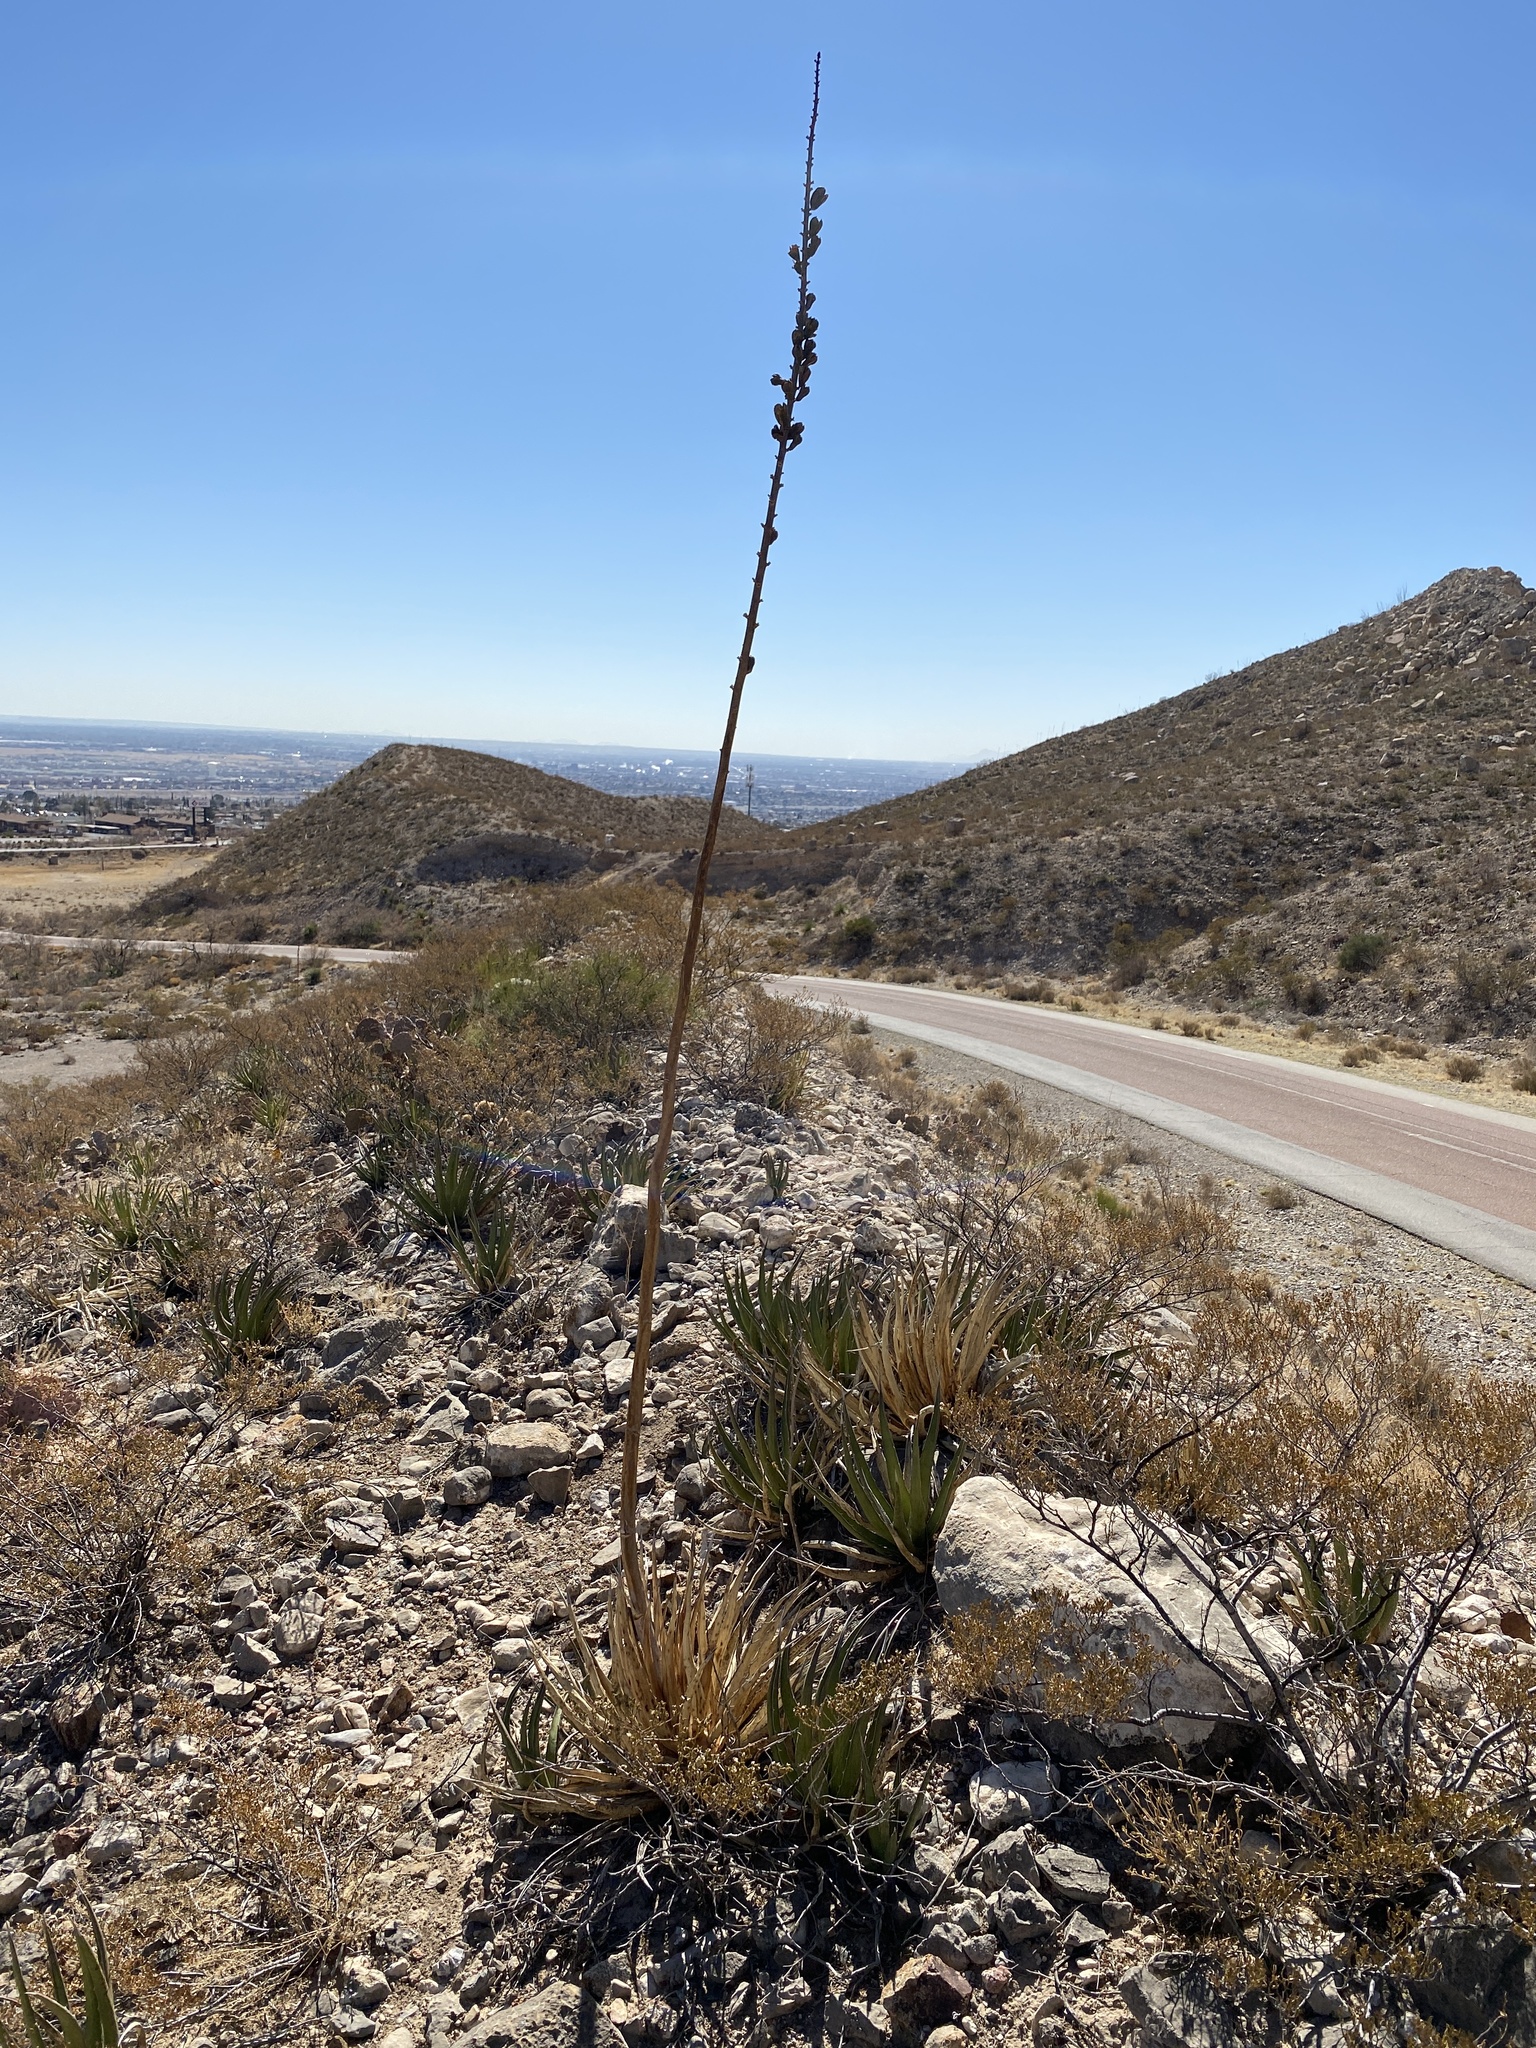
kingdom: Plantae
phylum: Tracheophyta
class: Liliopsida
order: Asparagales
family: Asparagaceae
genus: Agave
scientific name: Agave lechuguilla
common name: Lecheguilla agave
